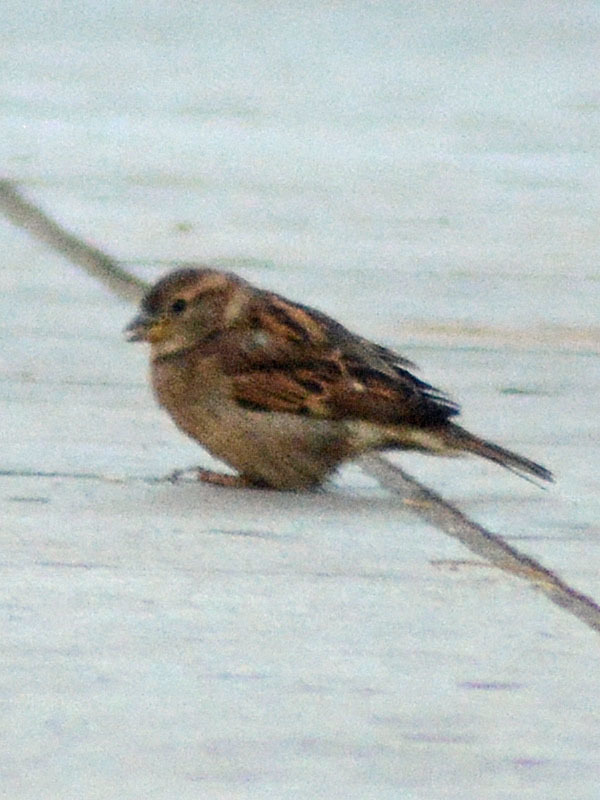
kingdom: Animalia
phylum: Chordata
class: Aves
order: Passeriformes
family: Passeridae
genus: Passer
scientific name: Passer domesticus
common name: House sparrow
